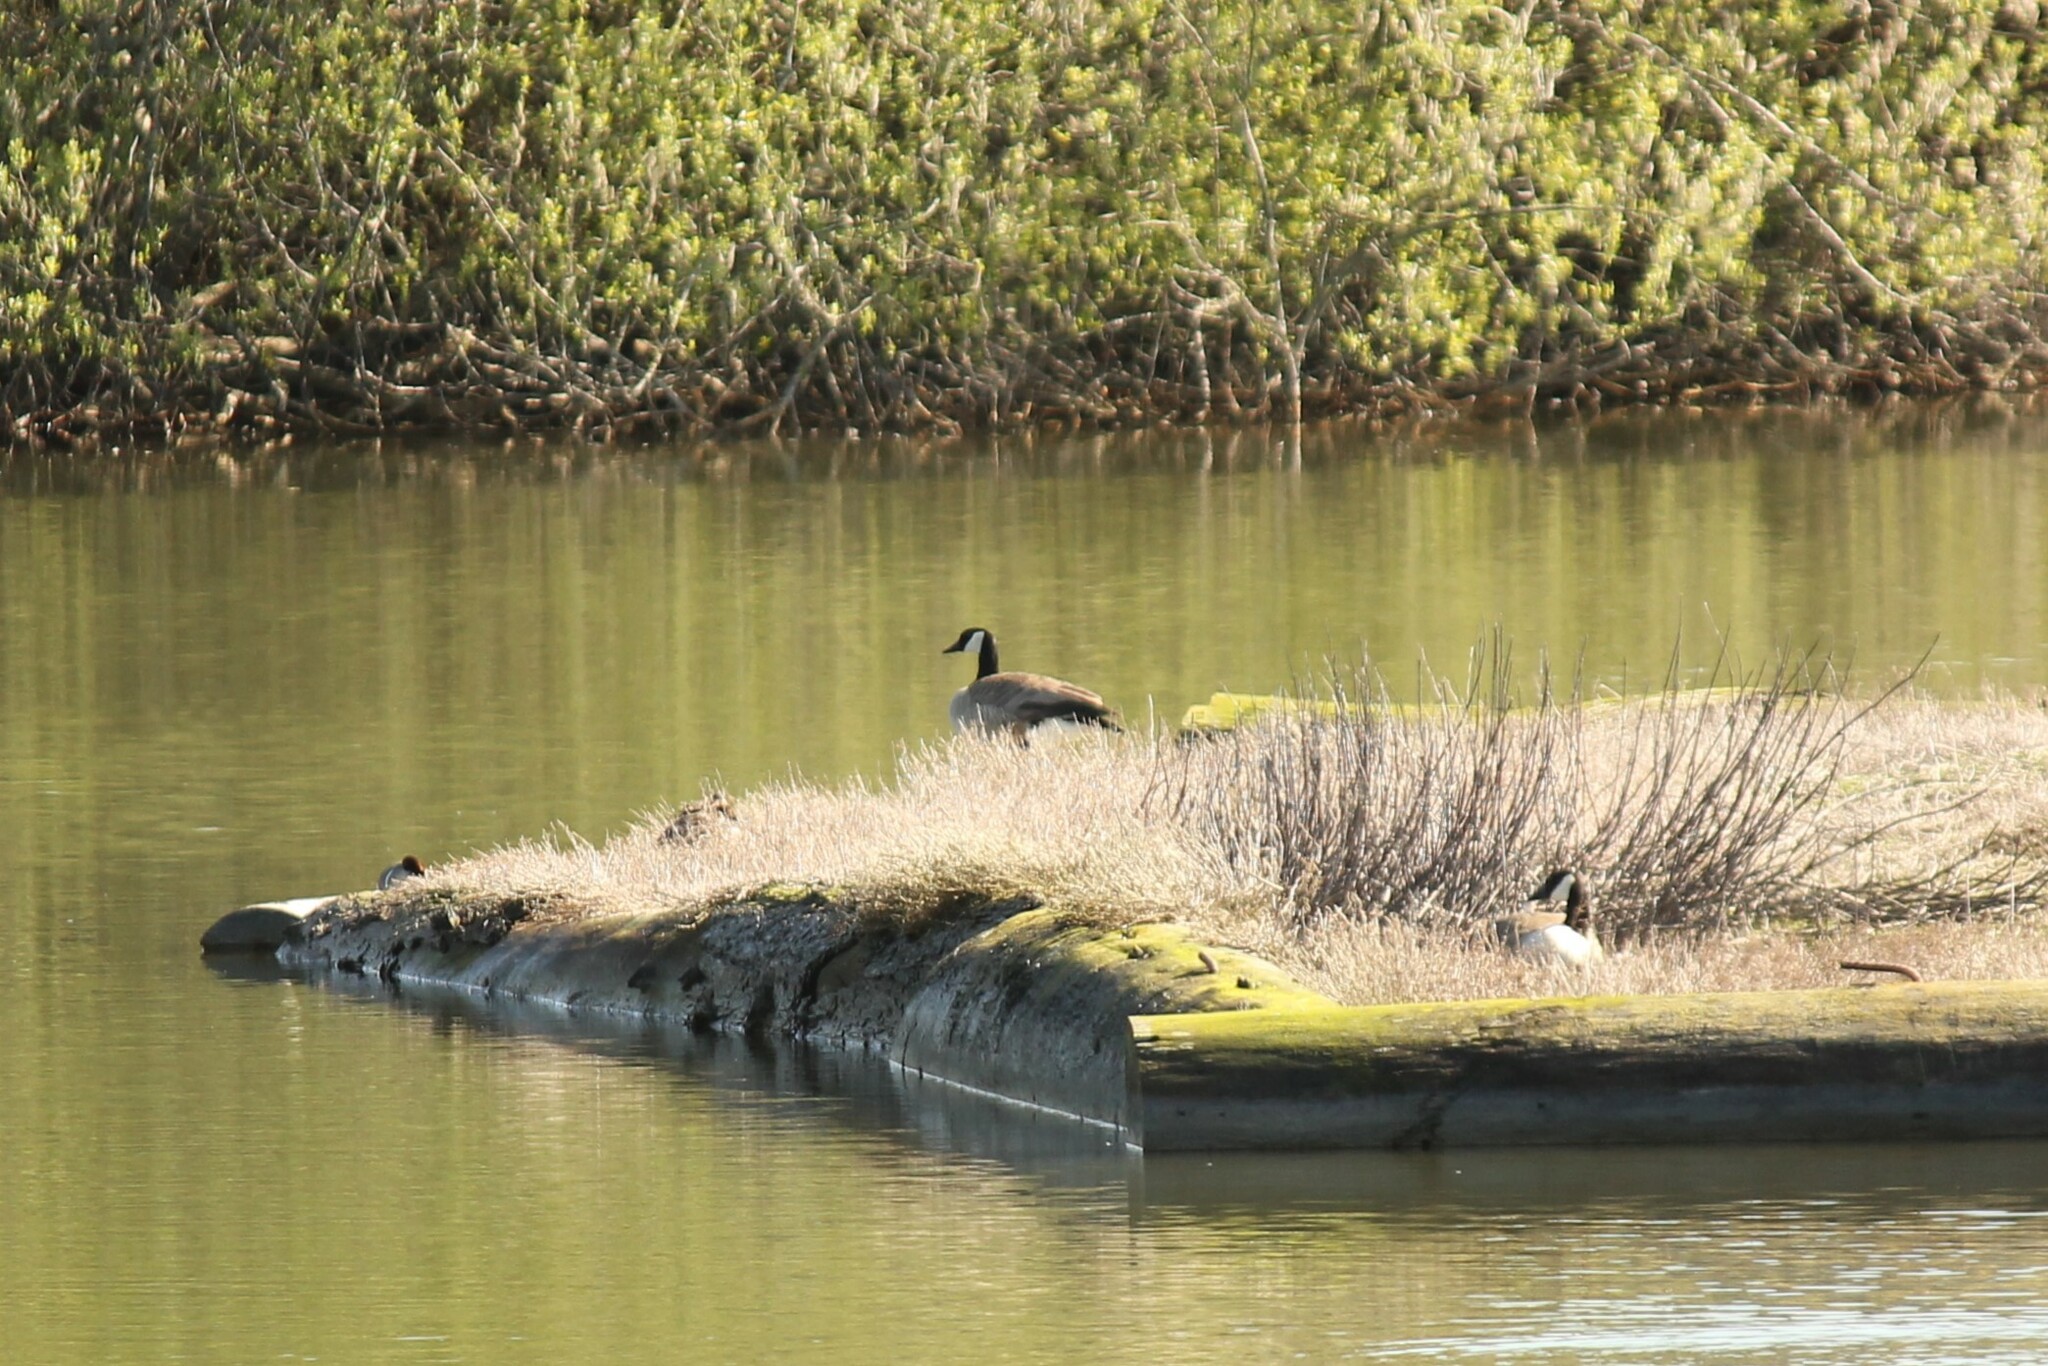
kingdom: Animalia
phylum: Chordata
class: Aves
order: Anseriformes
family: Anatidae
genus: Branta
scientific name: Branta canadensis
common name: Canada goose
